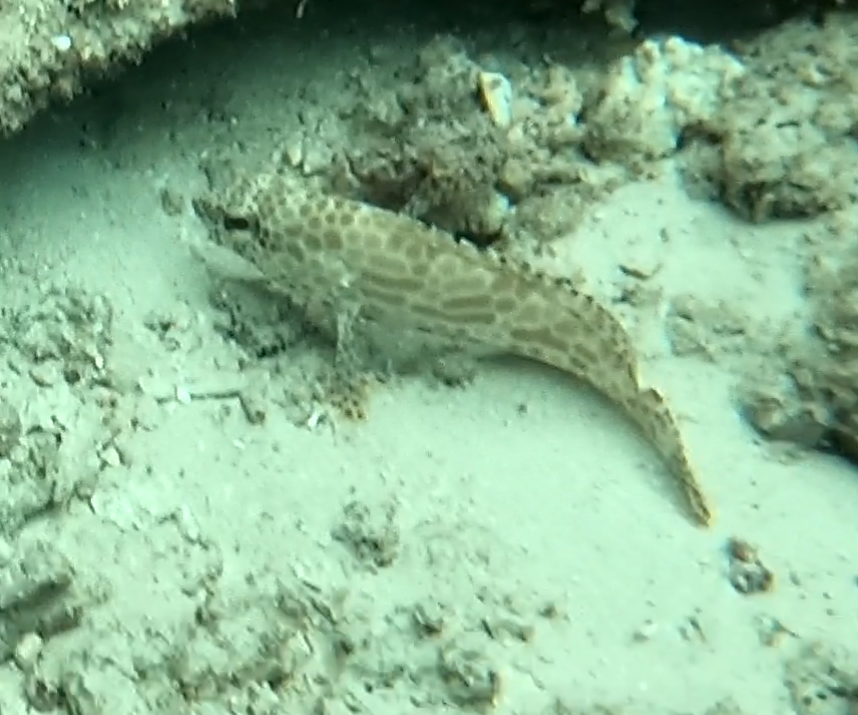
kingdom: Animalia
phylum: Chordata
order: Perciformes
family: Serranidae
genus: Epinephelus
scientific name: Epinephelus merra
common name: Honeycomb grouper
